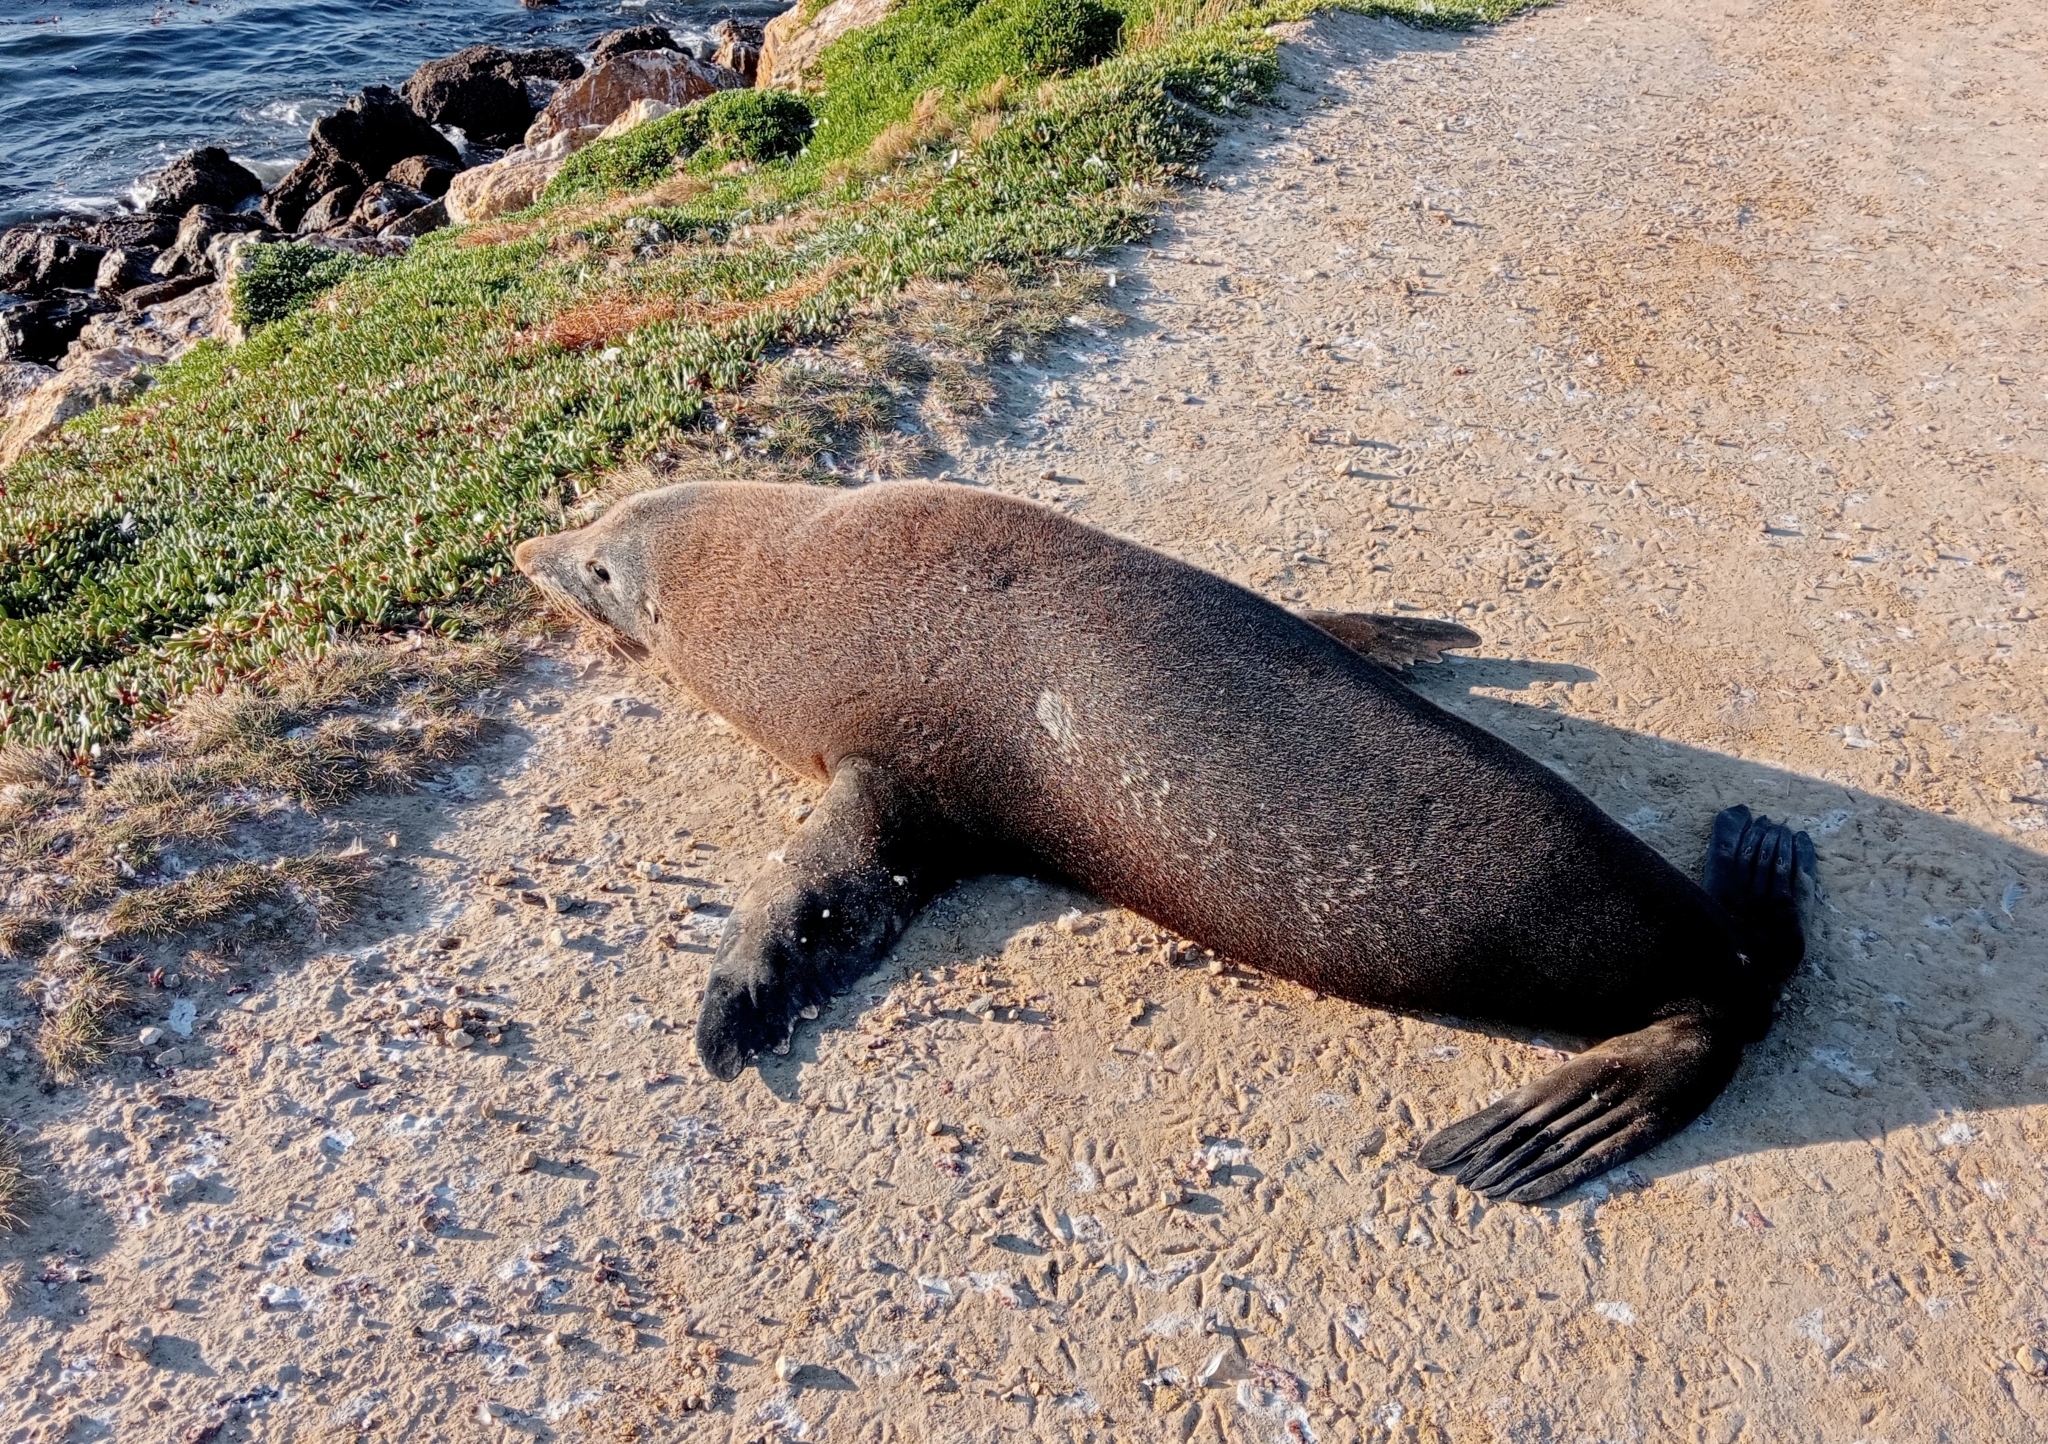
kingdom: Animalia
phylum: Chordata
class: Mammalia
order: Carnivora
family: Otariidae
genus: Arctocephalus
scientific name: Arctocephalus forsteri
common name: New zealand fur seal
